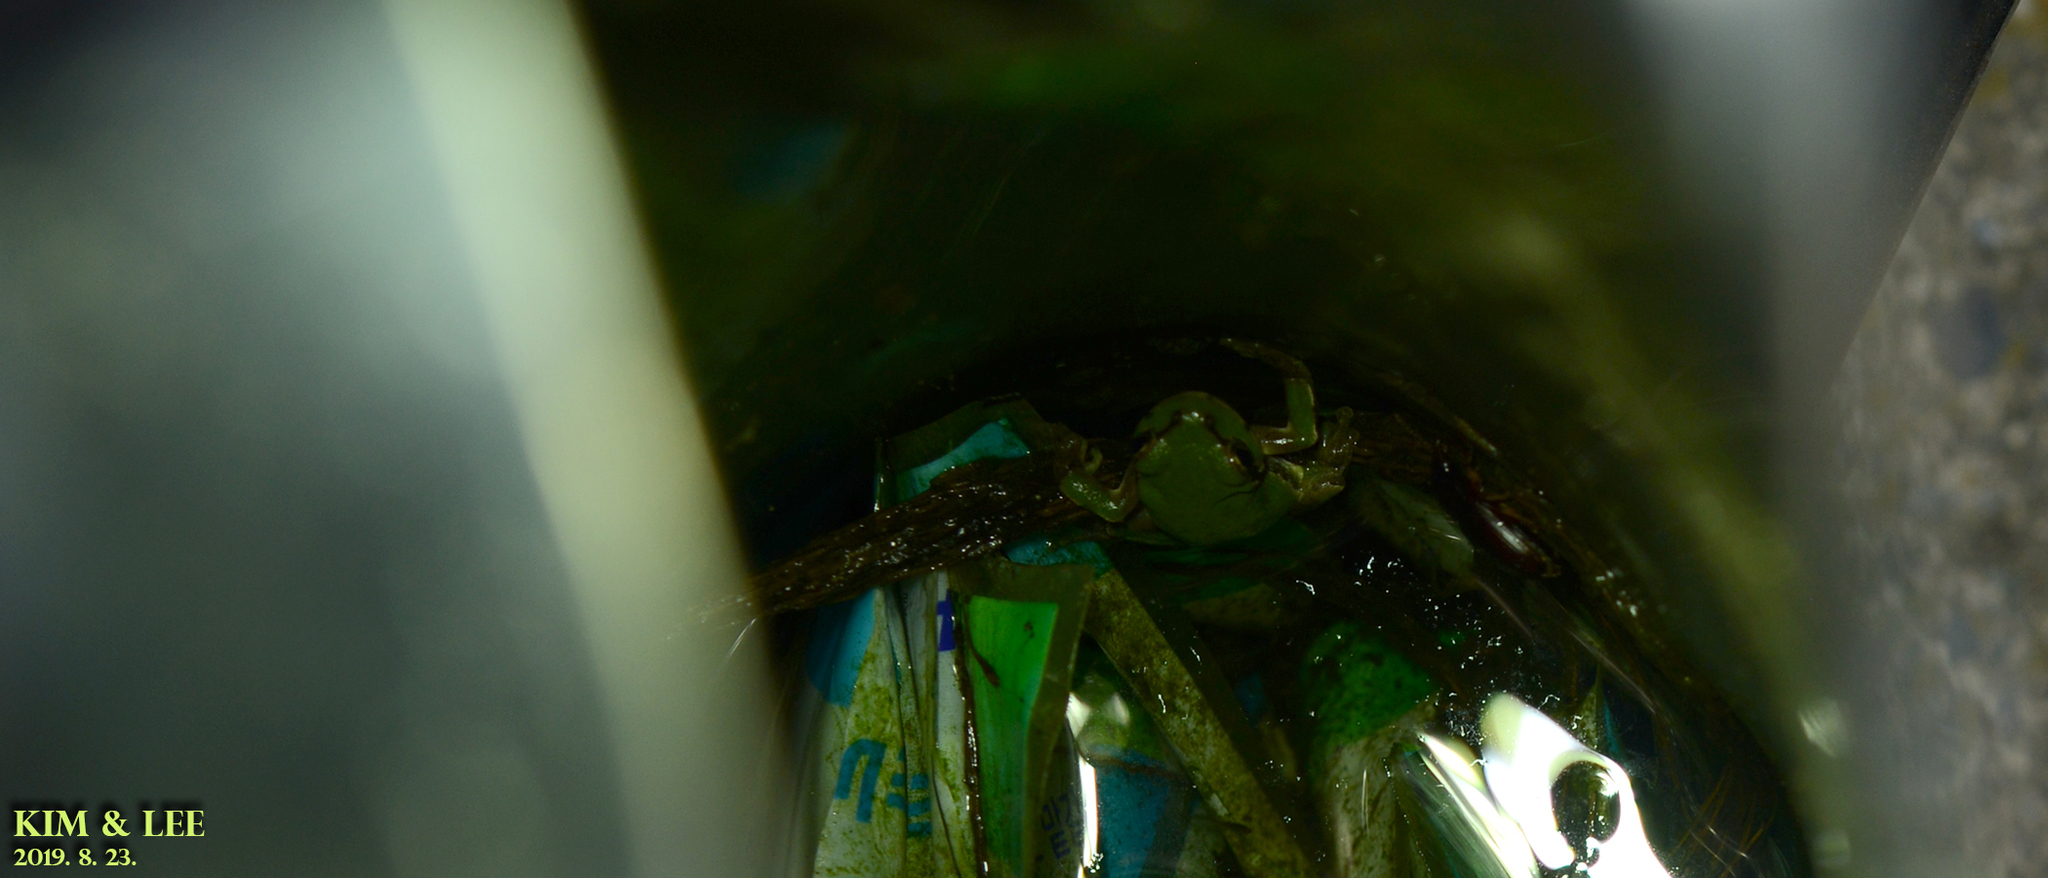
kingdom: Animalia
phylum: Chordata
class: Amphibia
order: Anura
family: Hylidae
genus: Dryophytes
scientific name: Dryophytes japonicus
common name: Japanese treefrog
